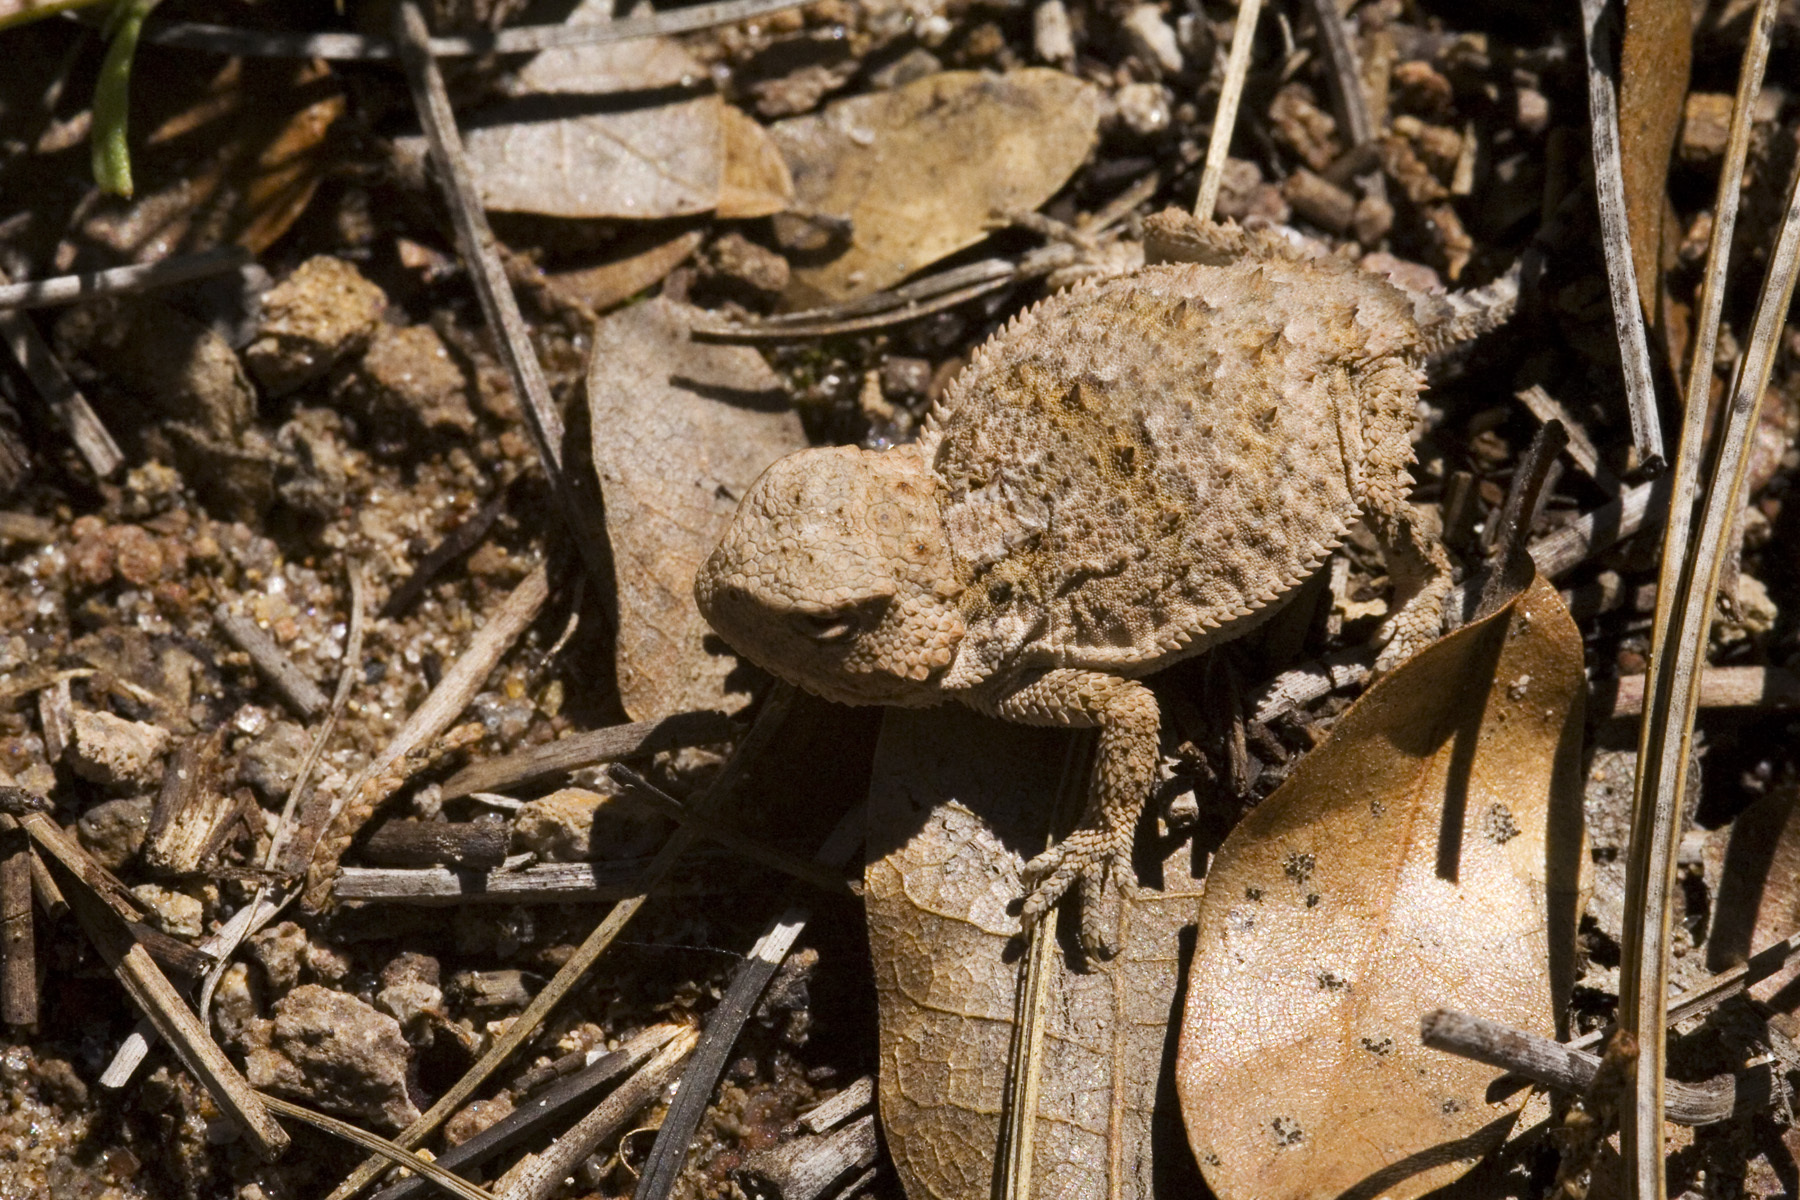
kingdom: Animalia
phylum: Chordata
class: Squamata
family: Phrynosomatidae
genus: Phrynosoma
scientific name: Phrynosoma hernandesi
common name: Greater short-horned lizard
